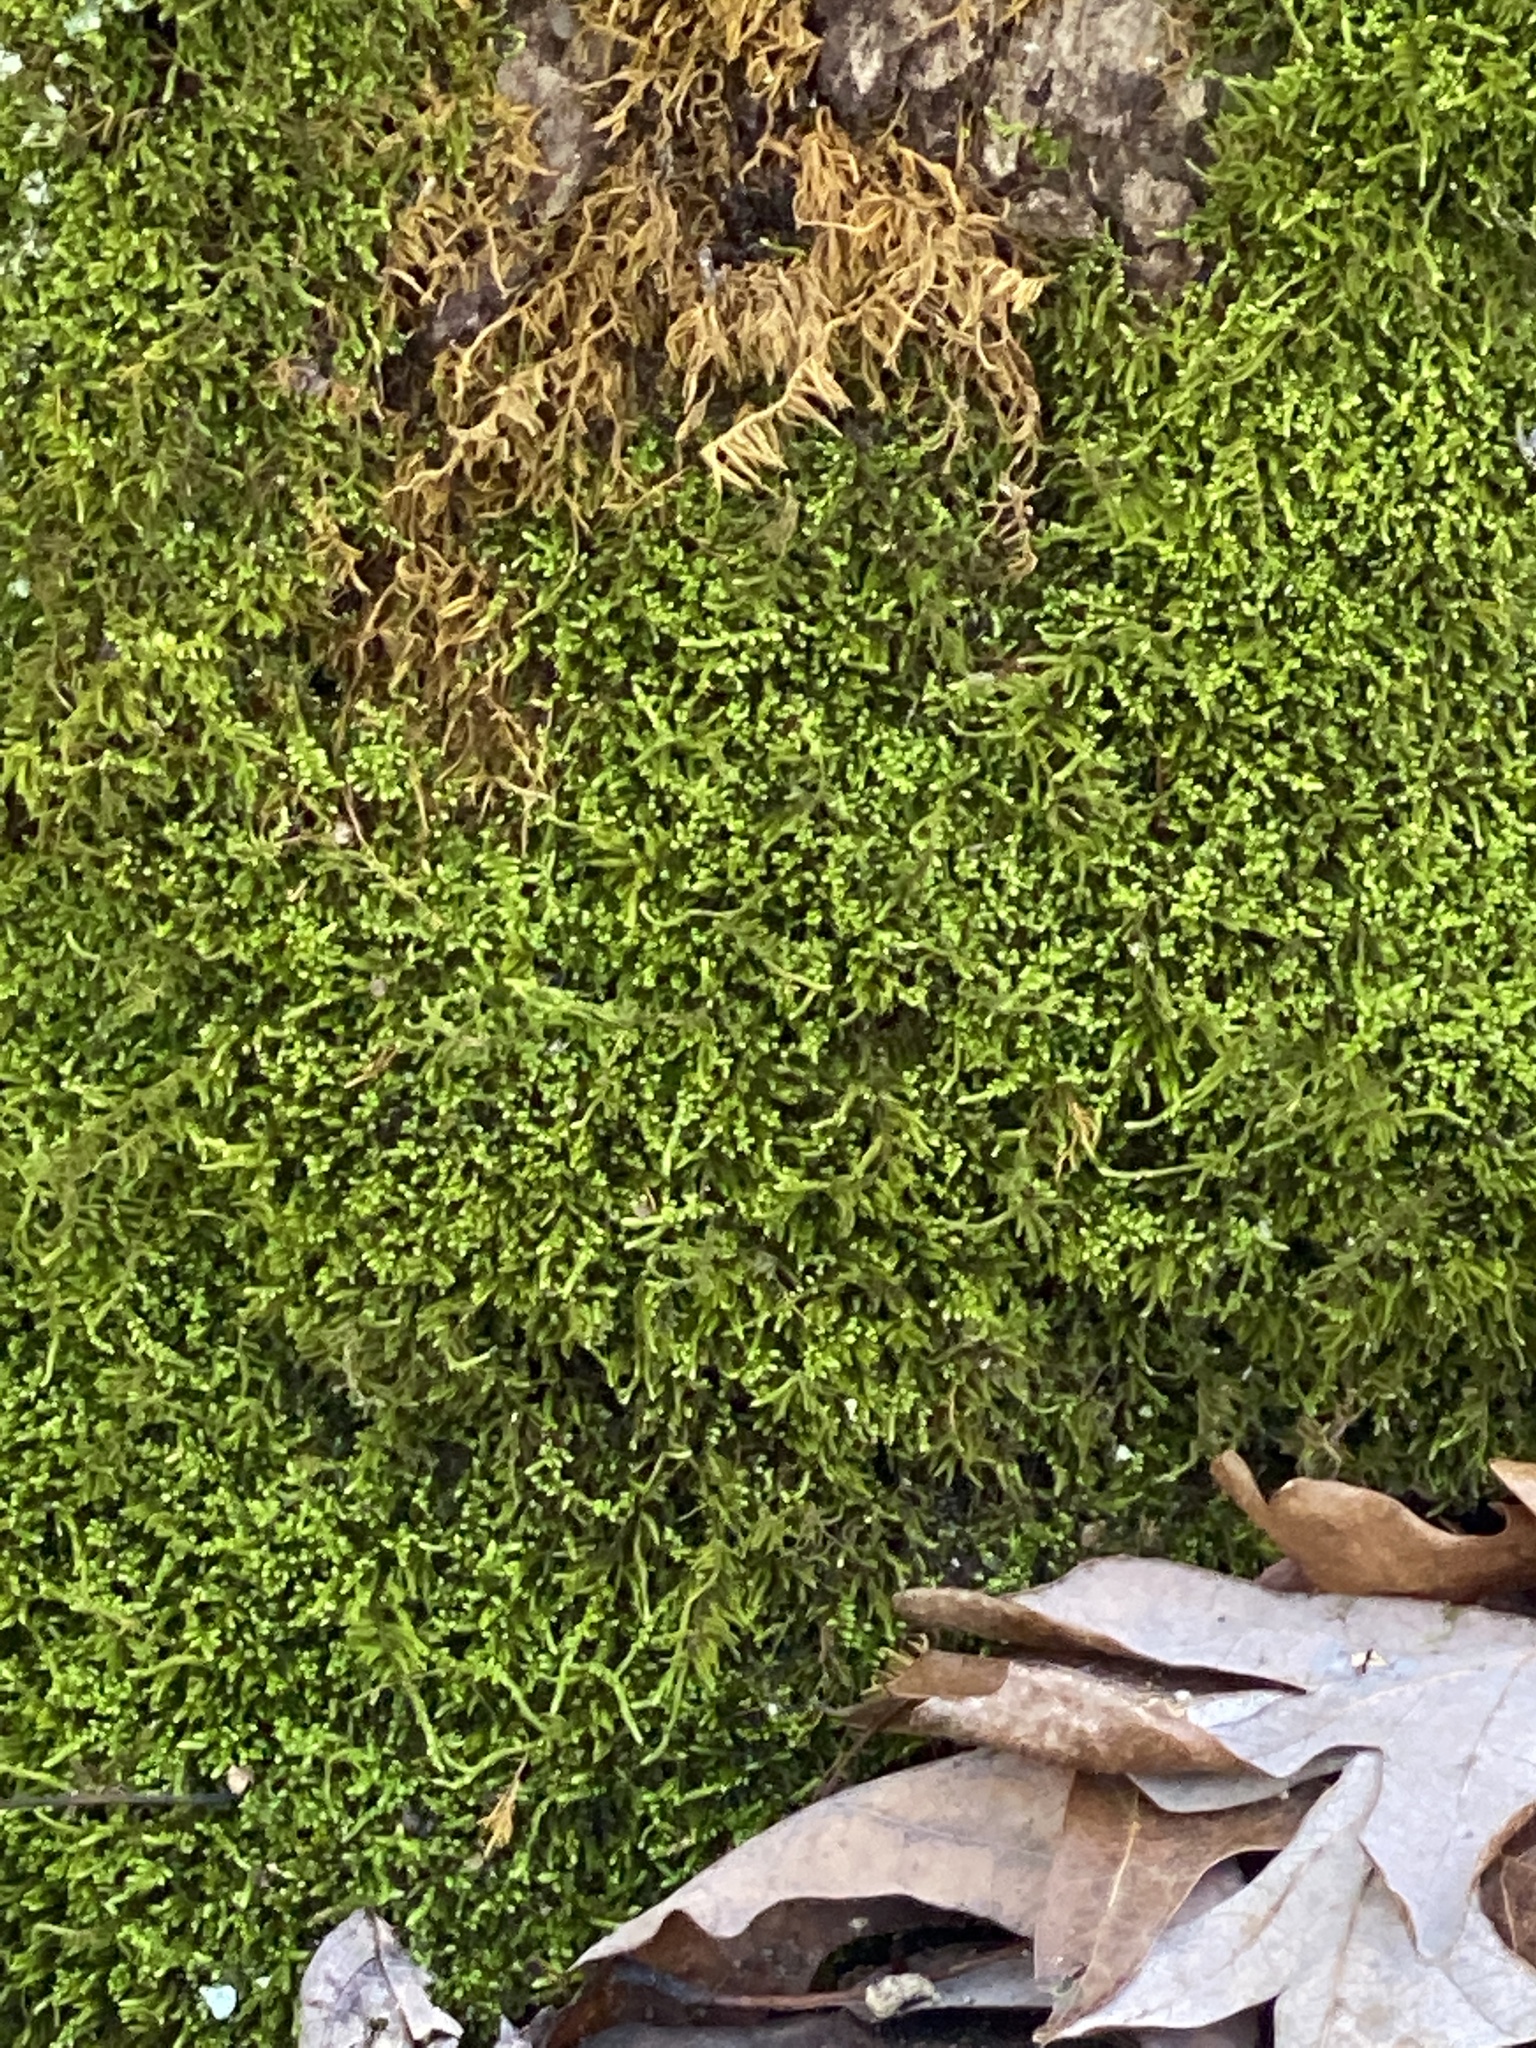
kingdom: Plantae
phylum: Bryophyta
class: Bryopsida
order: Hypnales
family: Neckeraceae
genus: Pseudanomodon
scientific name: Pseudanomodon attenuatus
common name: Tree-skirt moss
